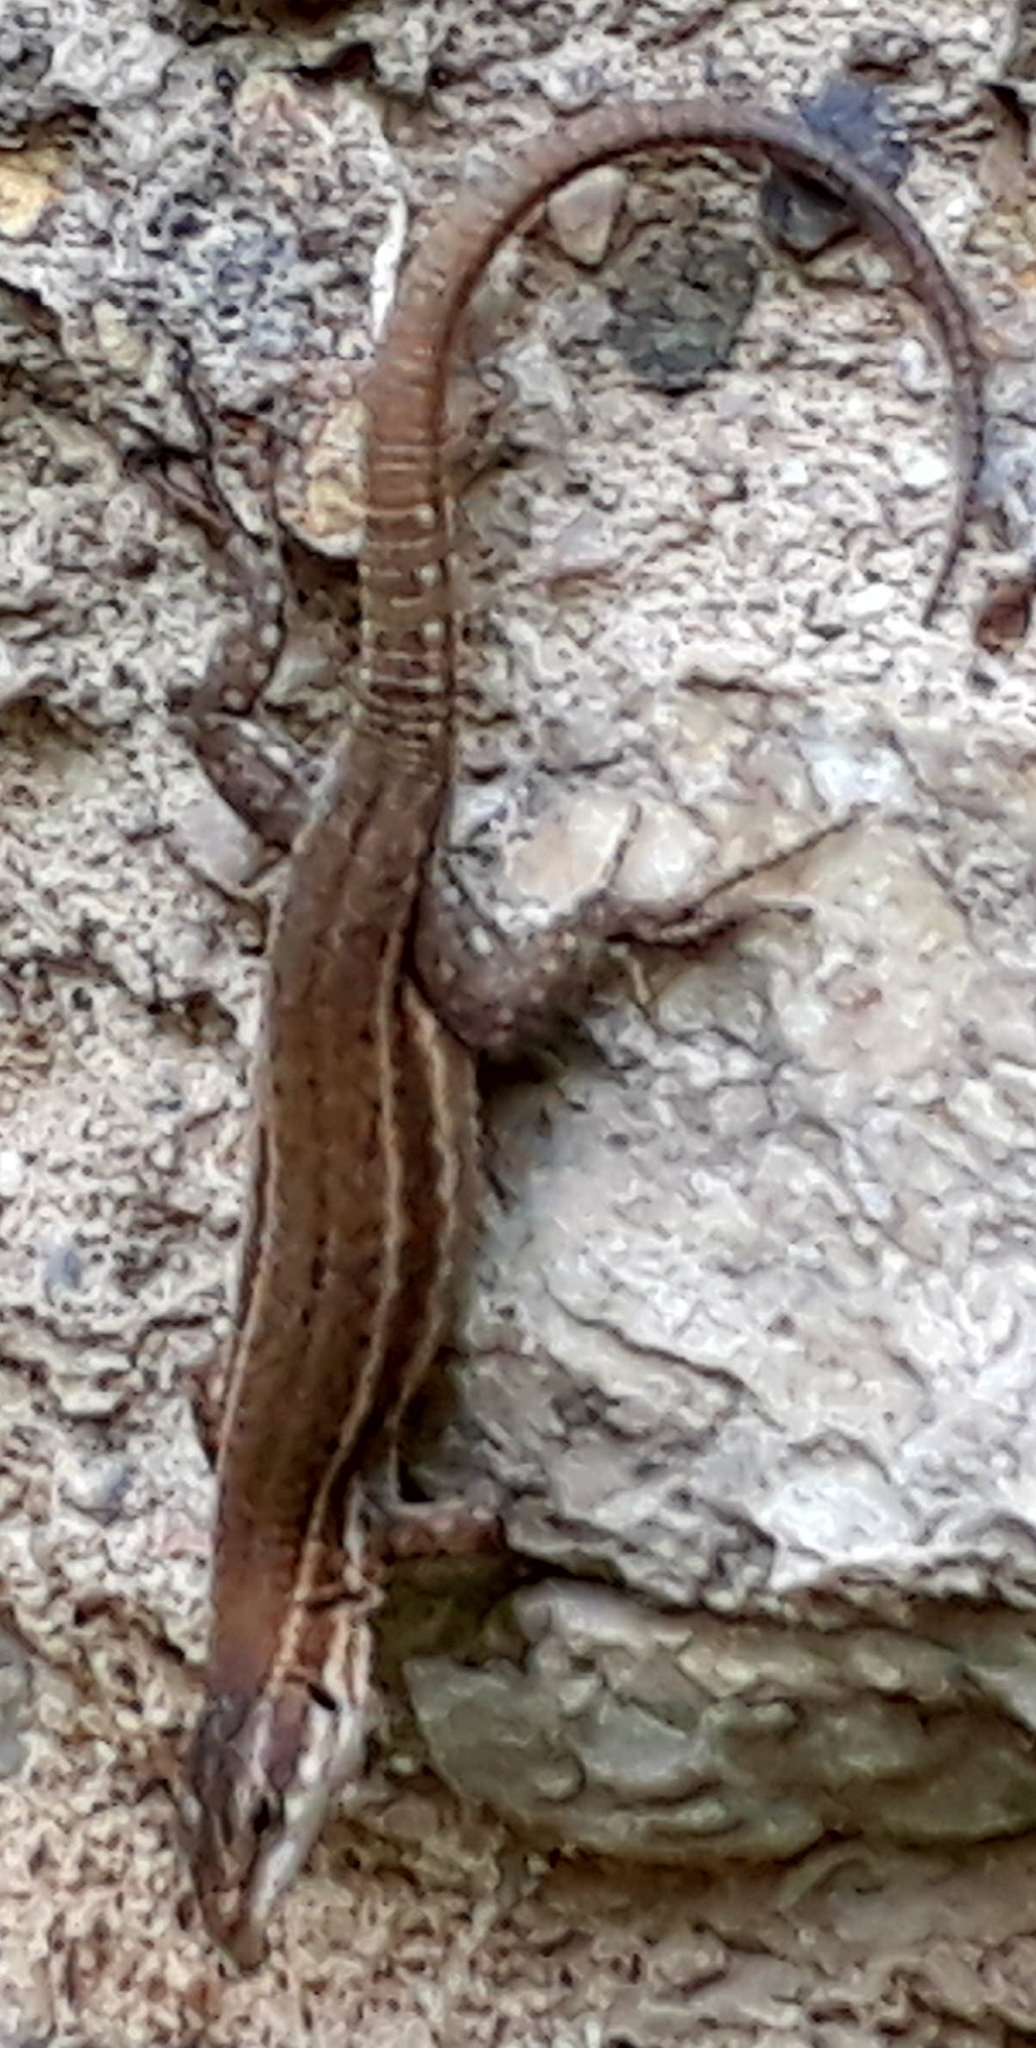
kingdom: Animalia
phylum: Chordata
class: Squamata
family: Lacertidae
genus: Podarcis
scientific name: Podarcis liolepis
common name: Catalonian wall lizard
